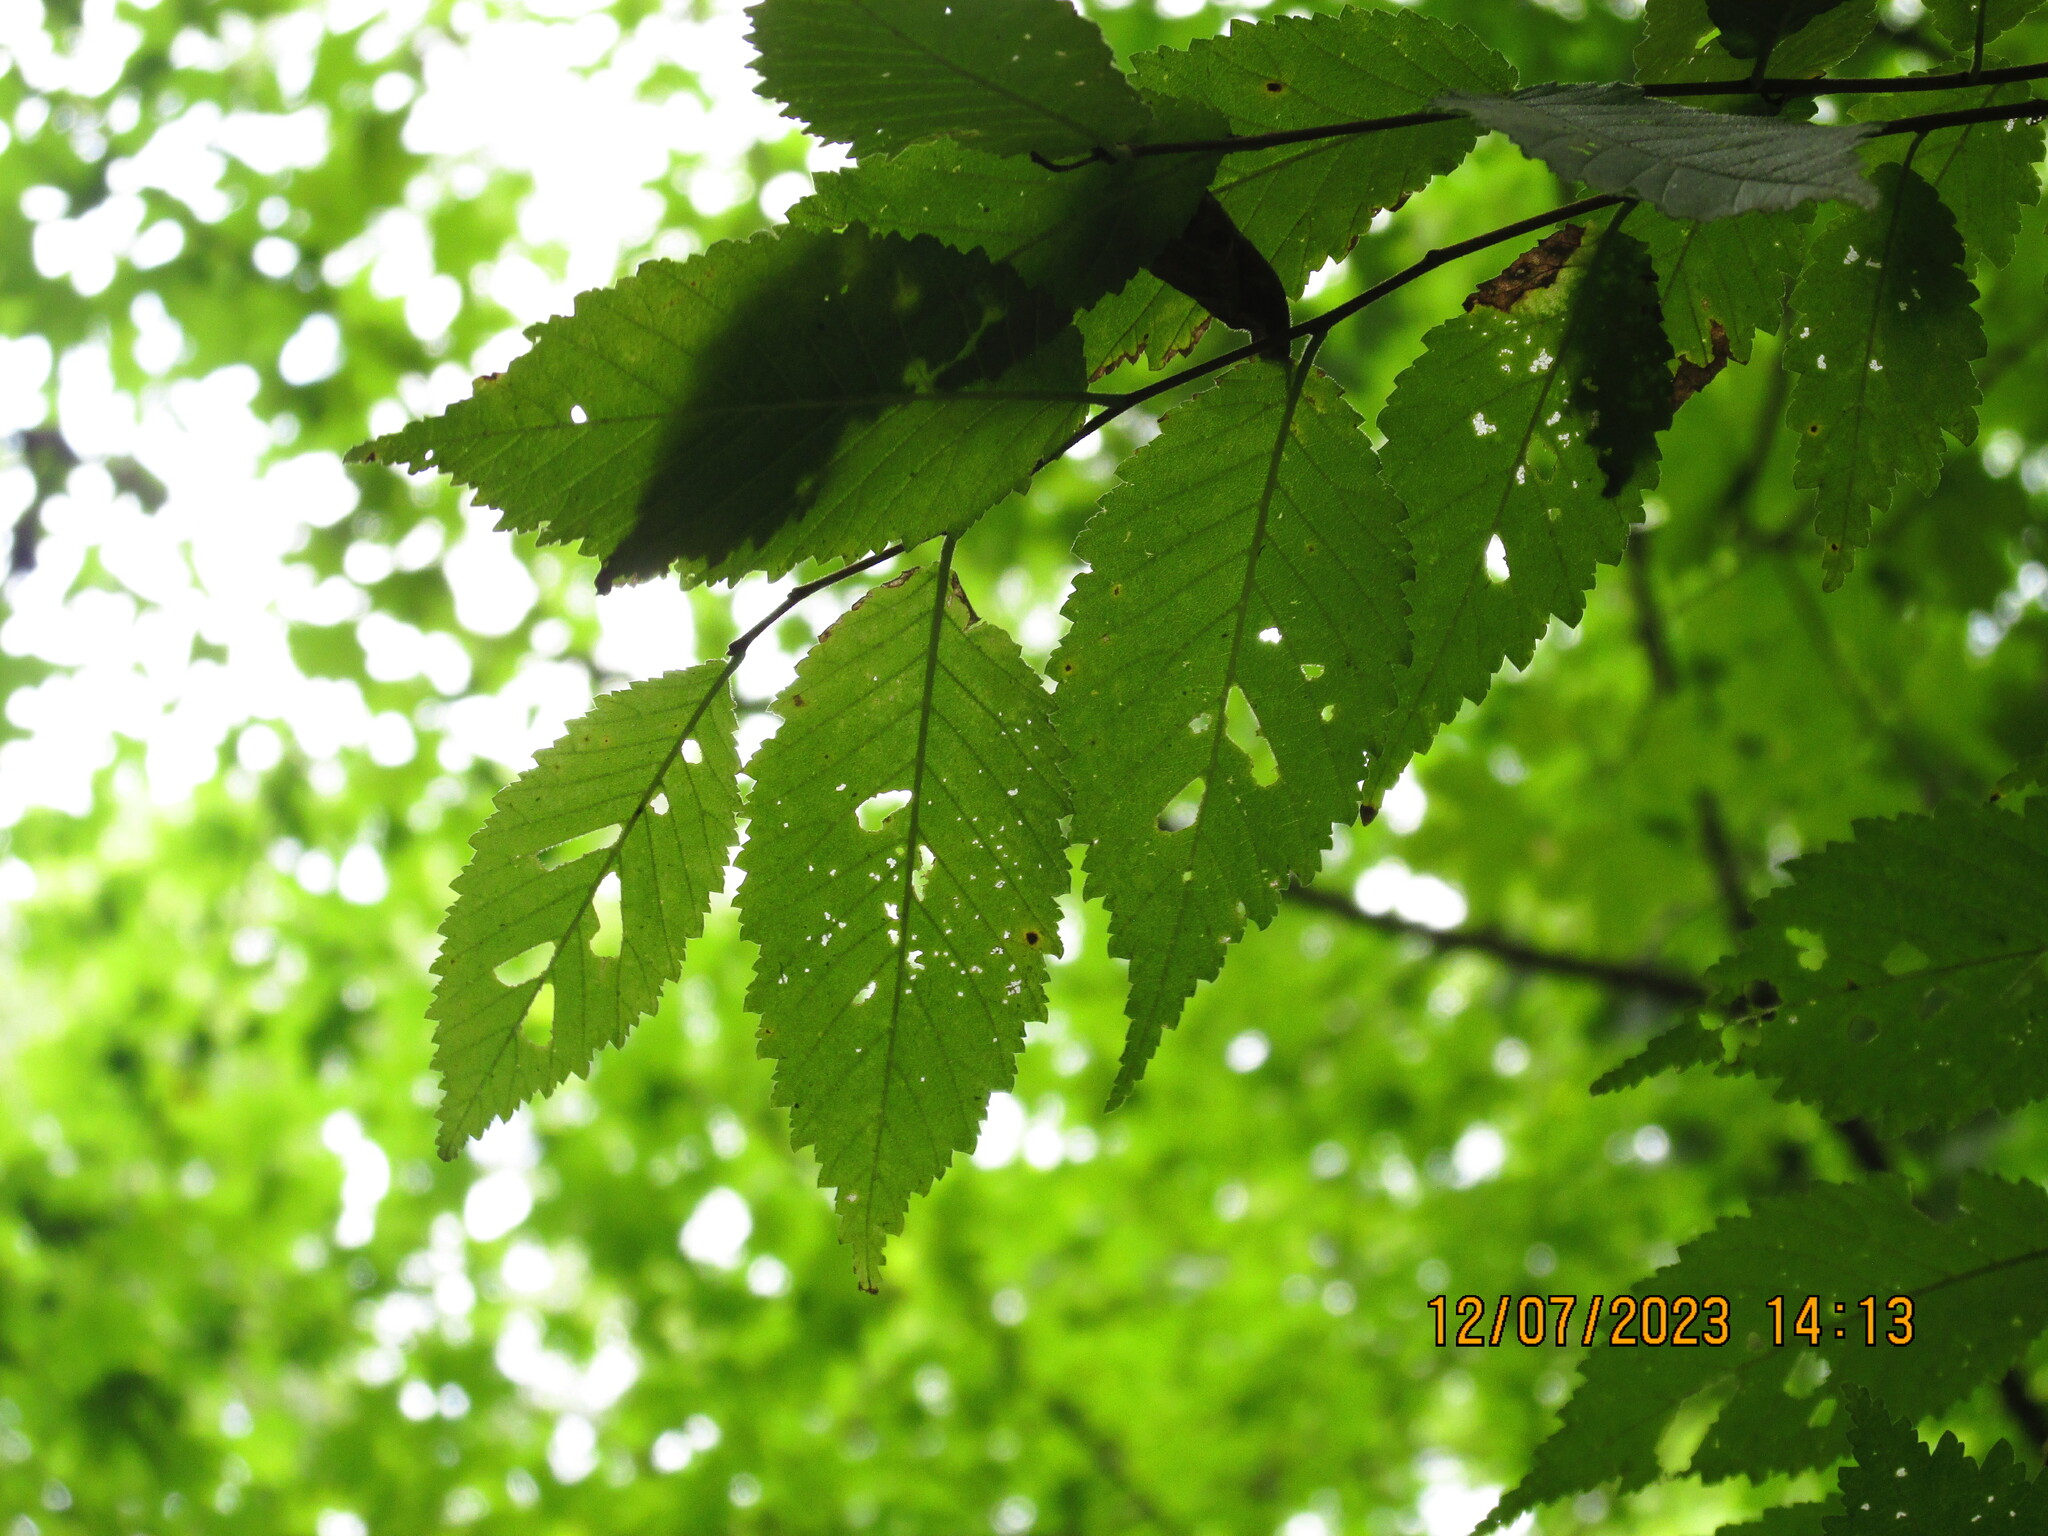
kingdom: Plantae
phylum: Tracheophyta
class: Magnoliopsida
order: Rosales
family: Ulmaceae
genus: Ulmus
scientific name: Ulmus rubra
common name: Slippery elm
